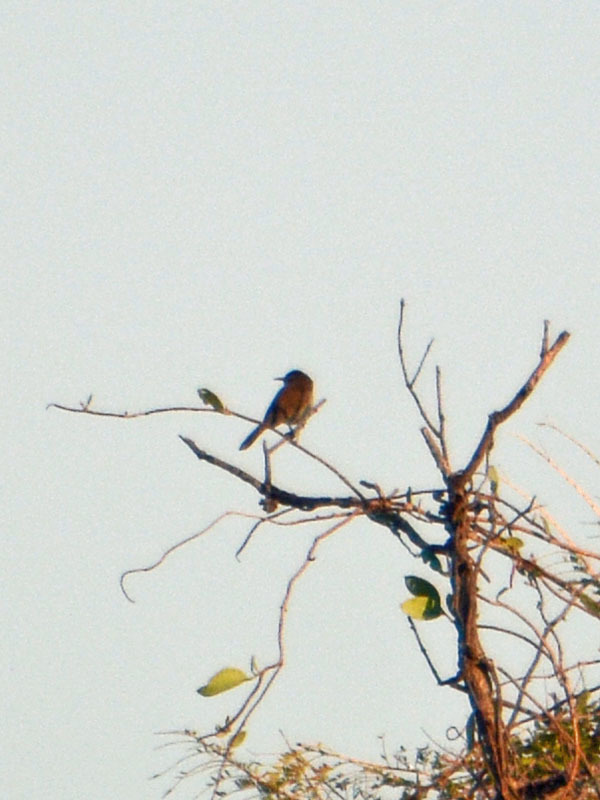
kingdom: Animalia
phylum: Chordata
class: Aves
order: Passeriformes
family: Troglodytidae
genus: Thryomanes
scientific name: Thryomanes bewickii
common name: Bewick's wren
